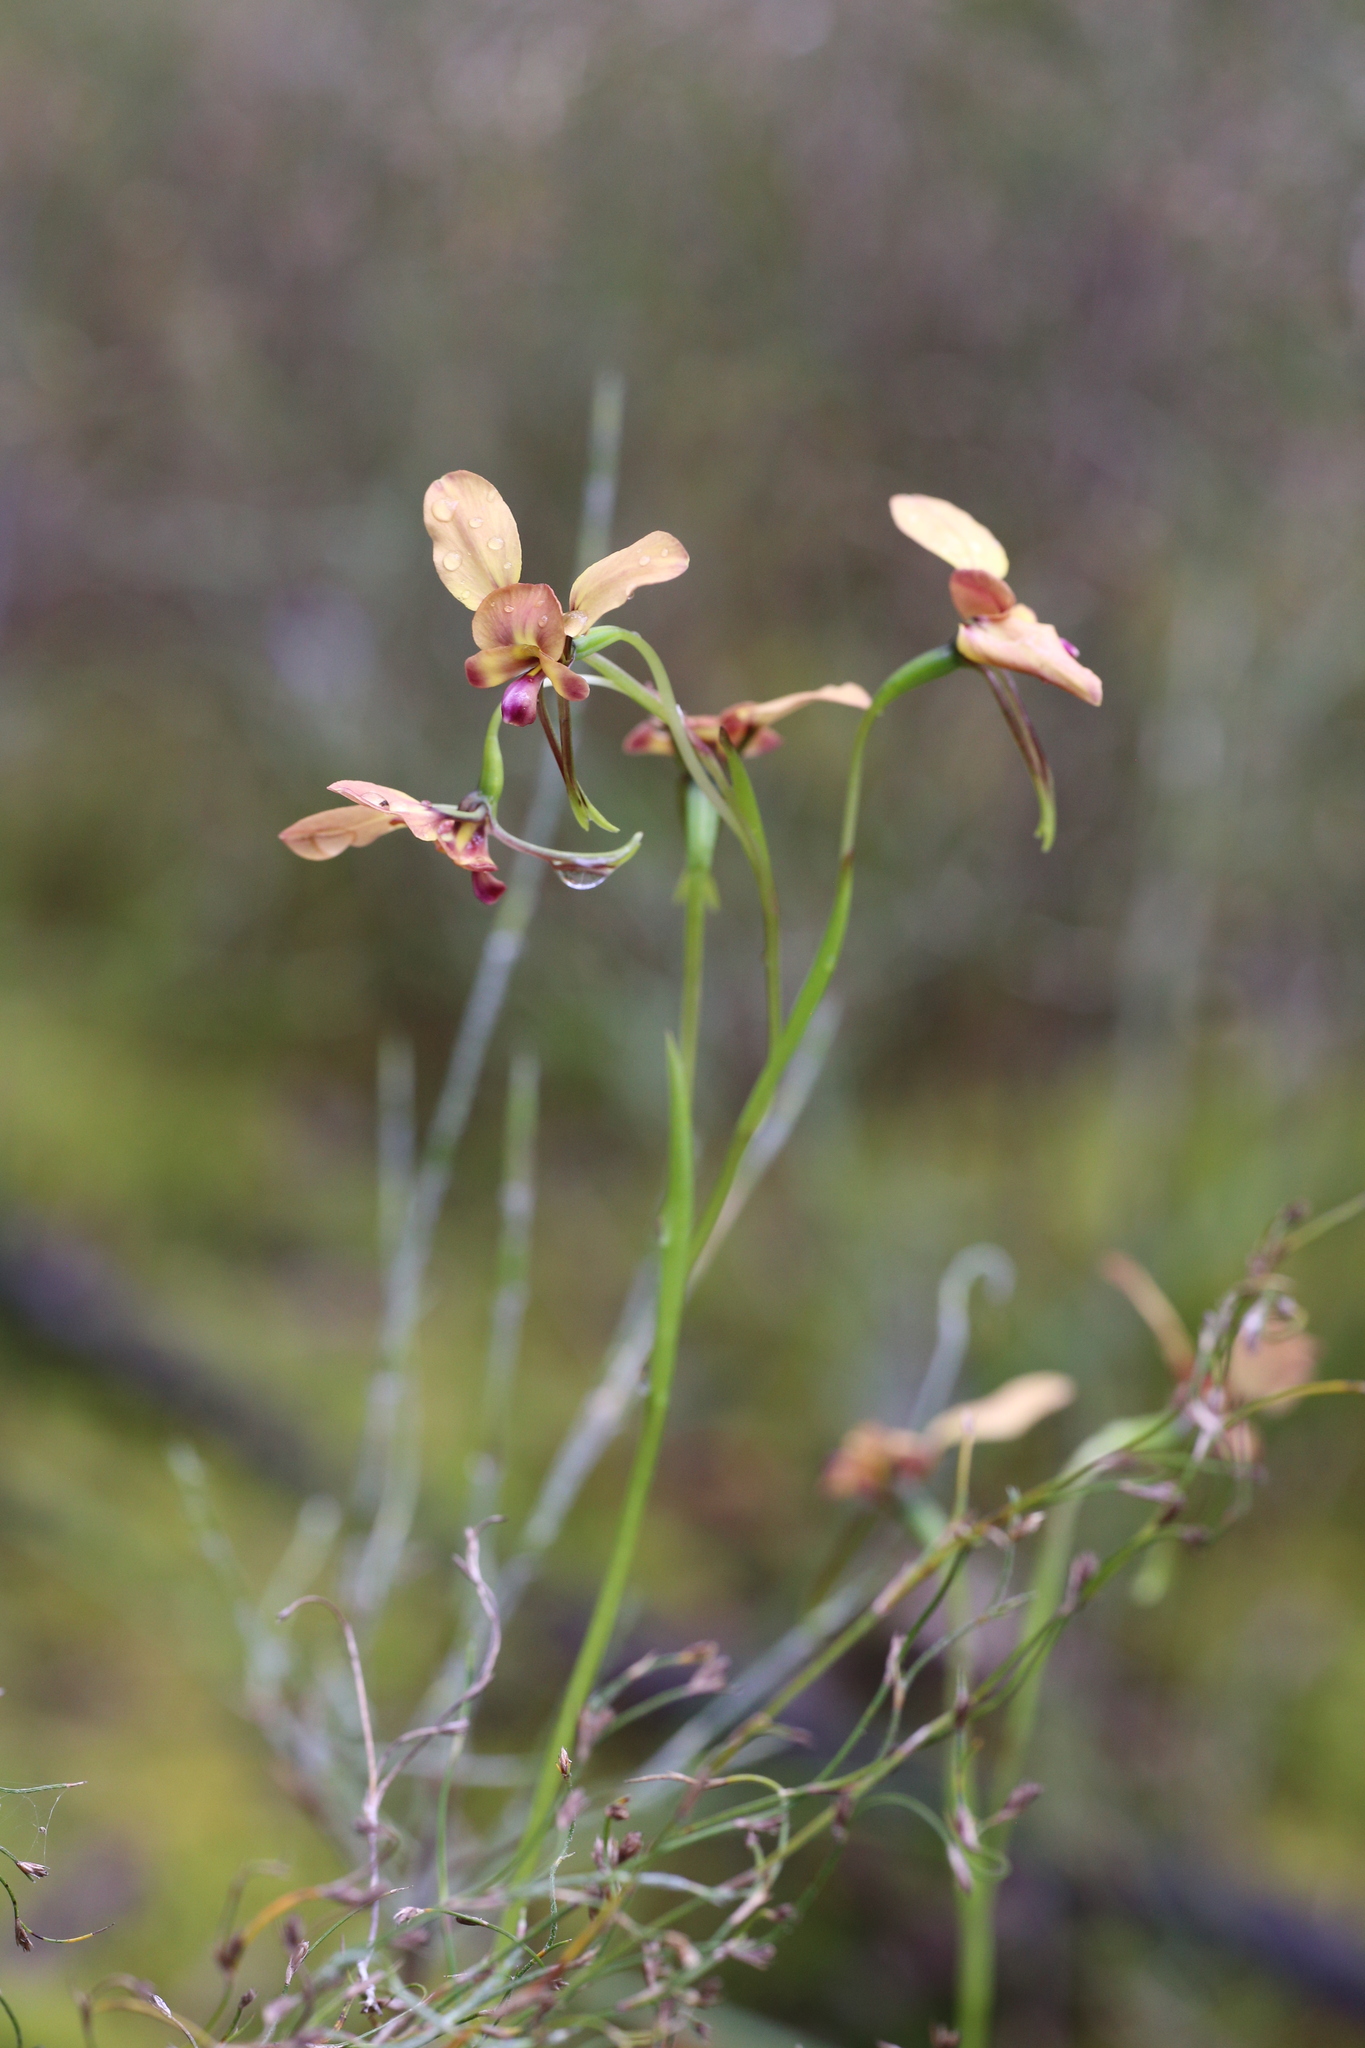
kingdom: Plantae
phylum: Tracheophyta
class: Liliopsida
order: Asparagales
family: Orchidaceae
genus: Diuris
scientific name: Diuris jonesii
